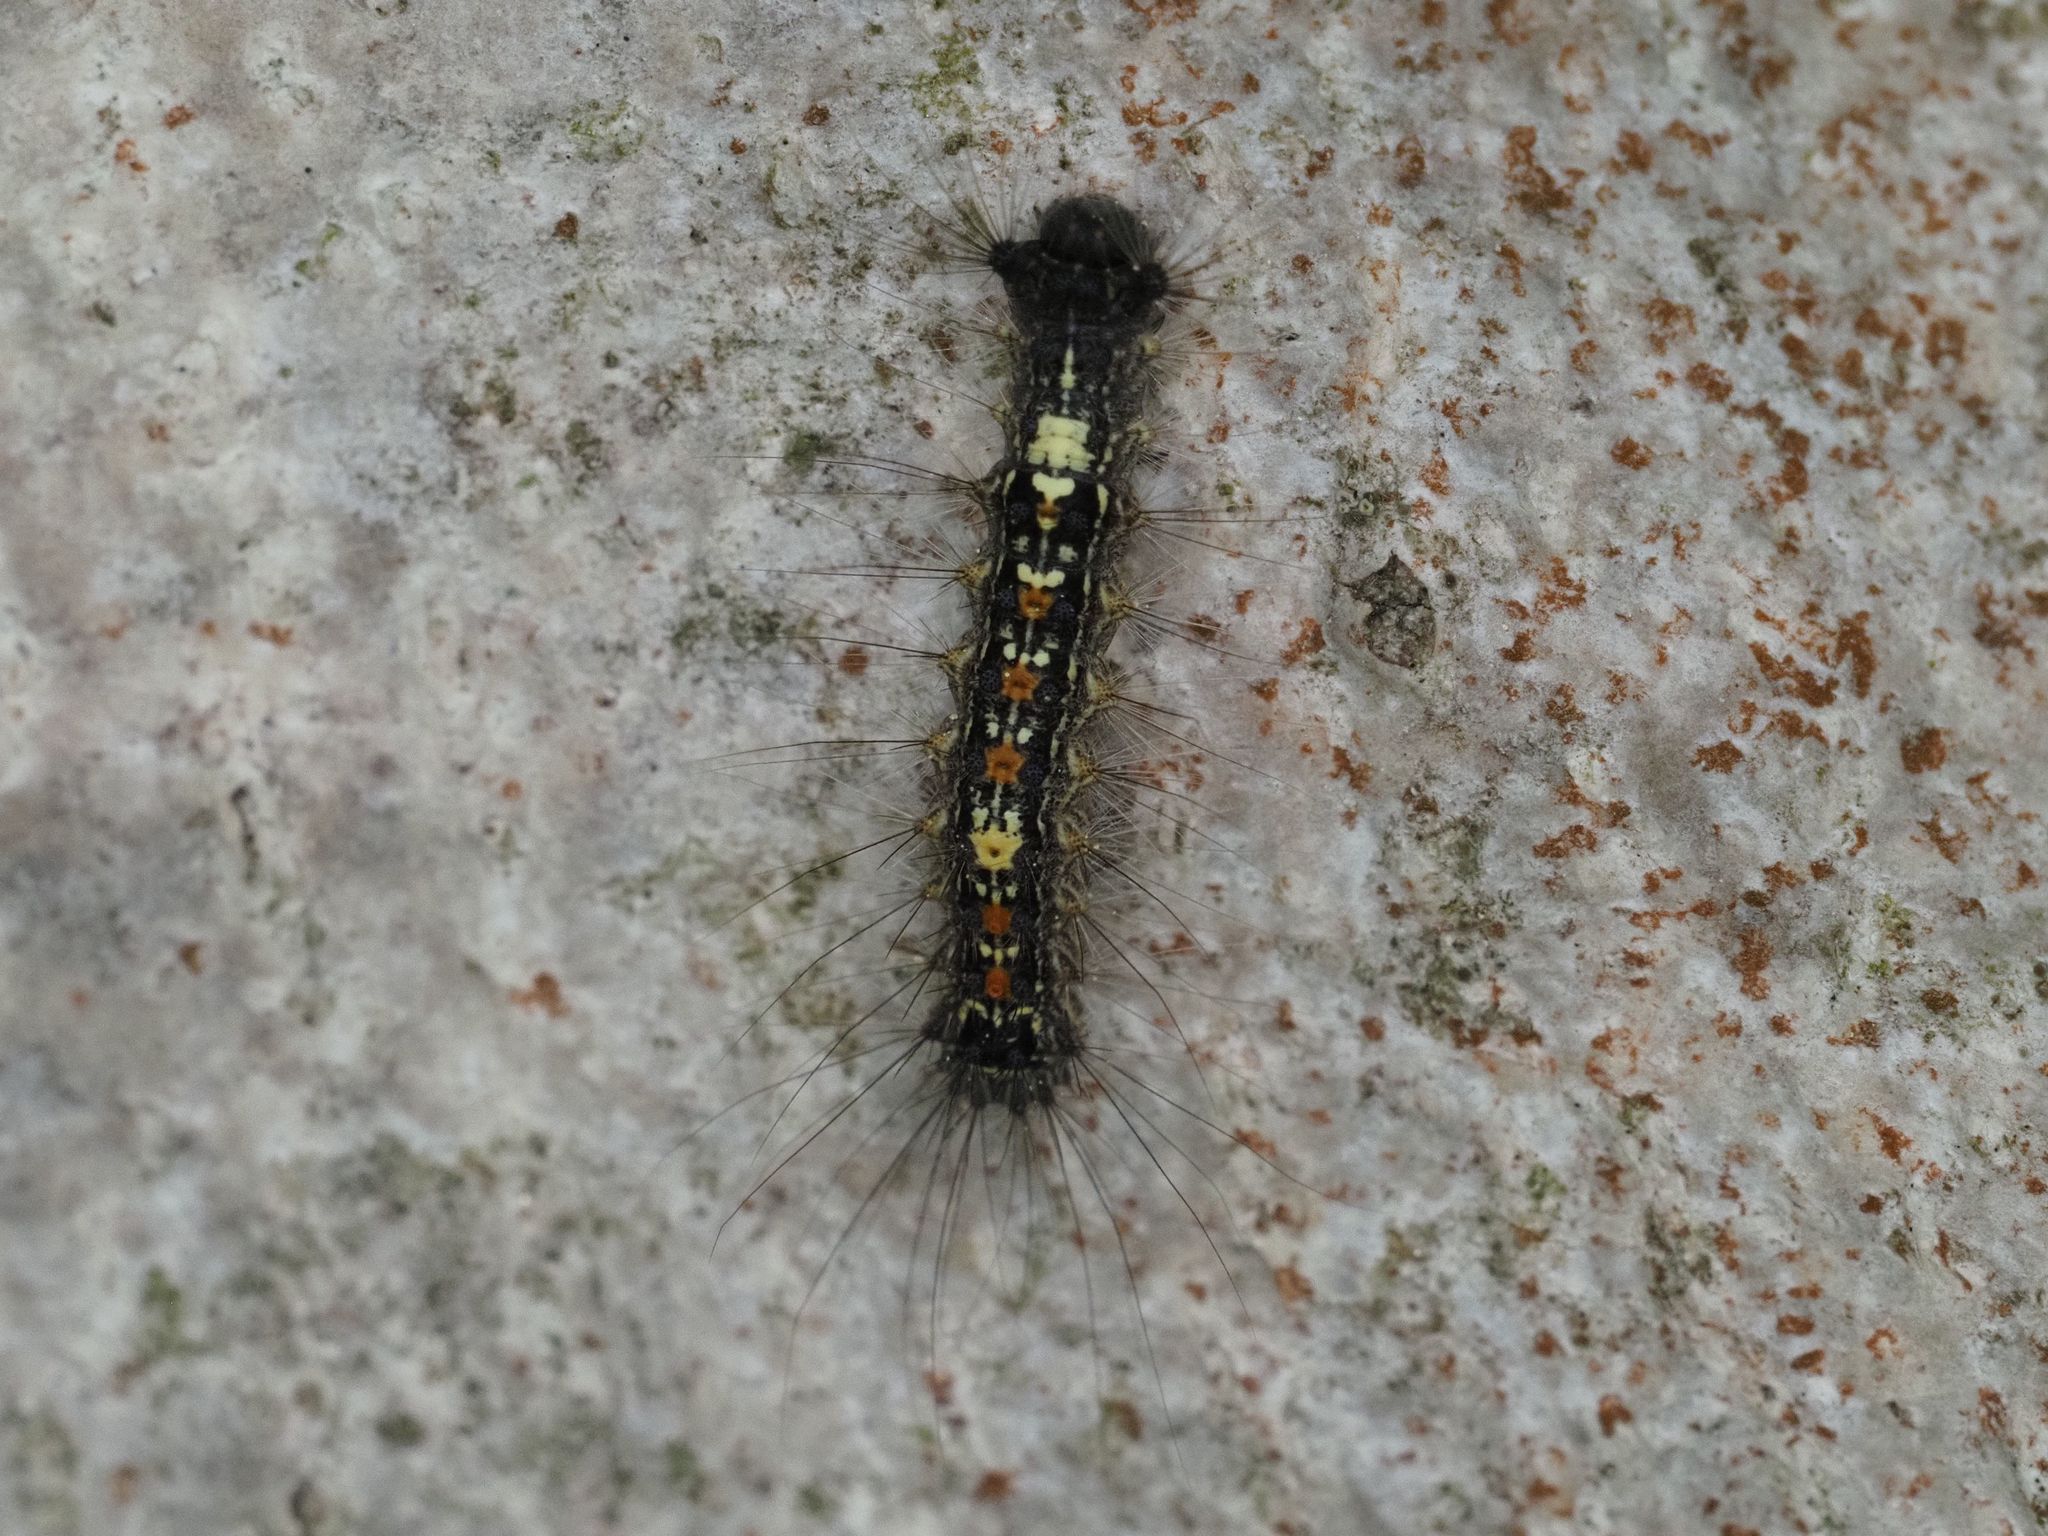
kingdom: Animalia
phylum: Arthropoda
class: Insecta
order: Lepidoptera
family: Erebidae
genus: Lymantria
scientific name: Lymantria dispar
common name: Gypsy moth
